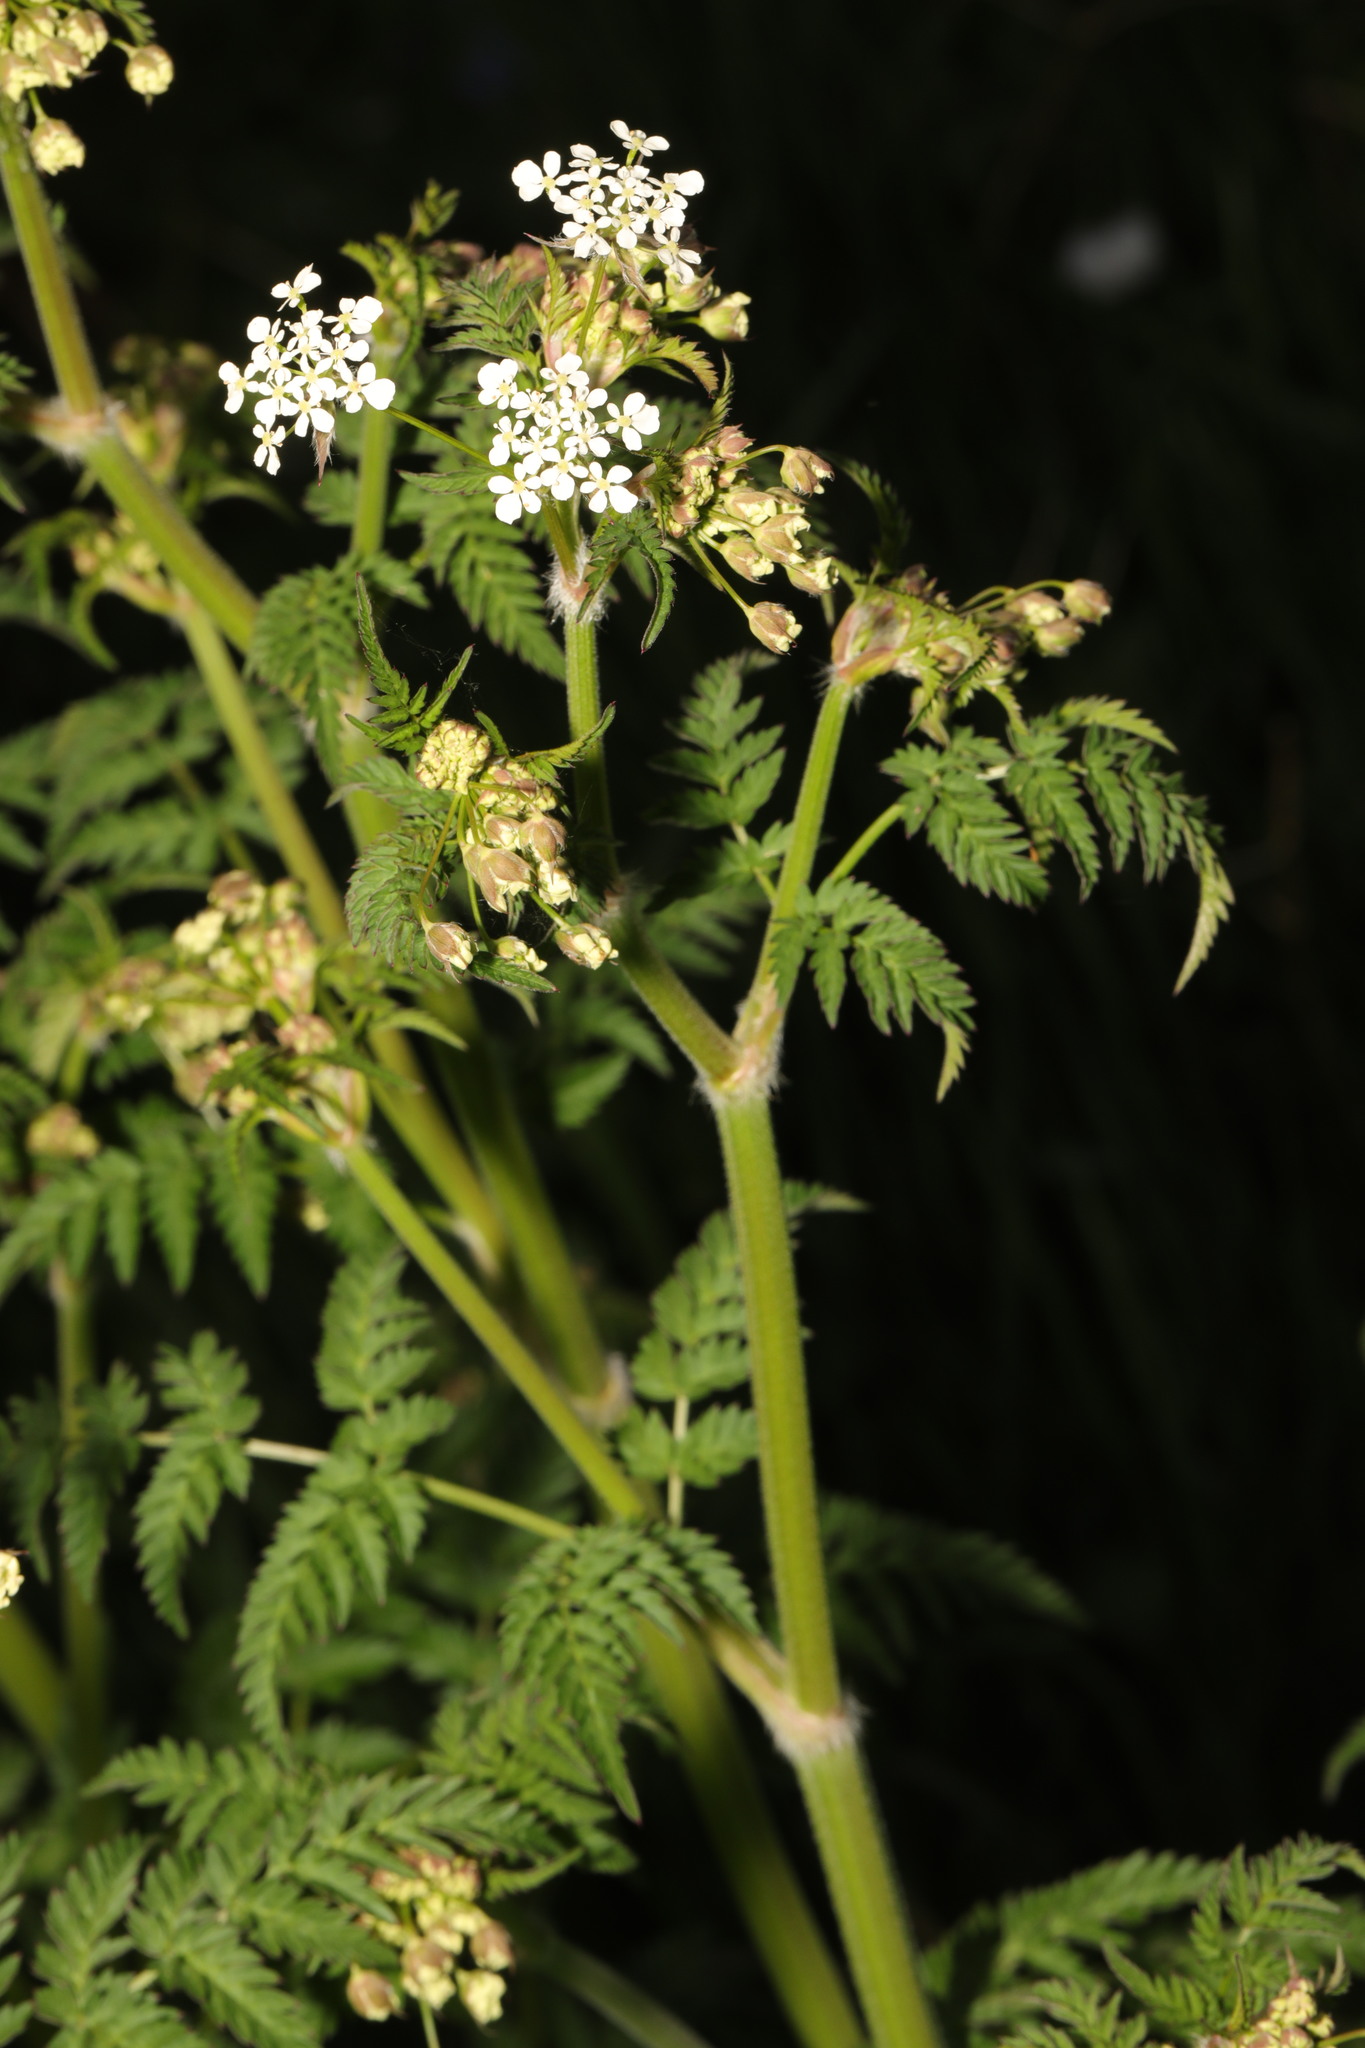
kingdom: Plantae
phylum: Tracheophyta
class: Magnoliopsida
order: Apiales
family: Apiaceae
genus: Anthriscus
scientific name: Anthriscus sylvestris
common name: Cow parsley
